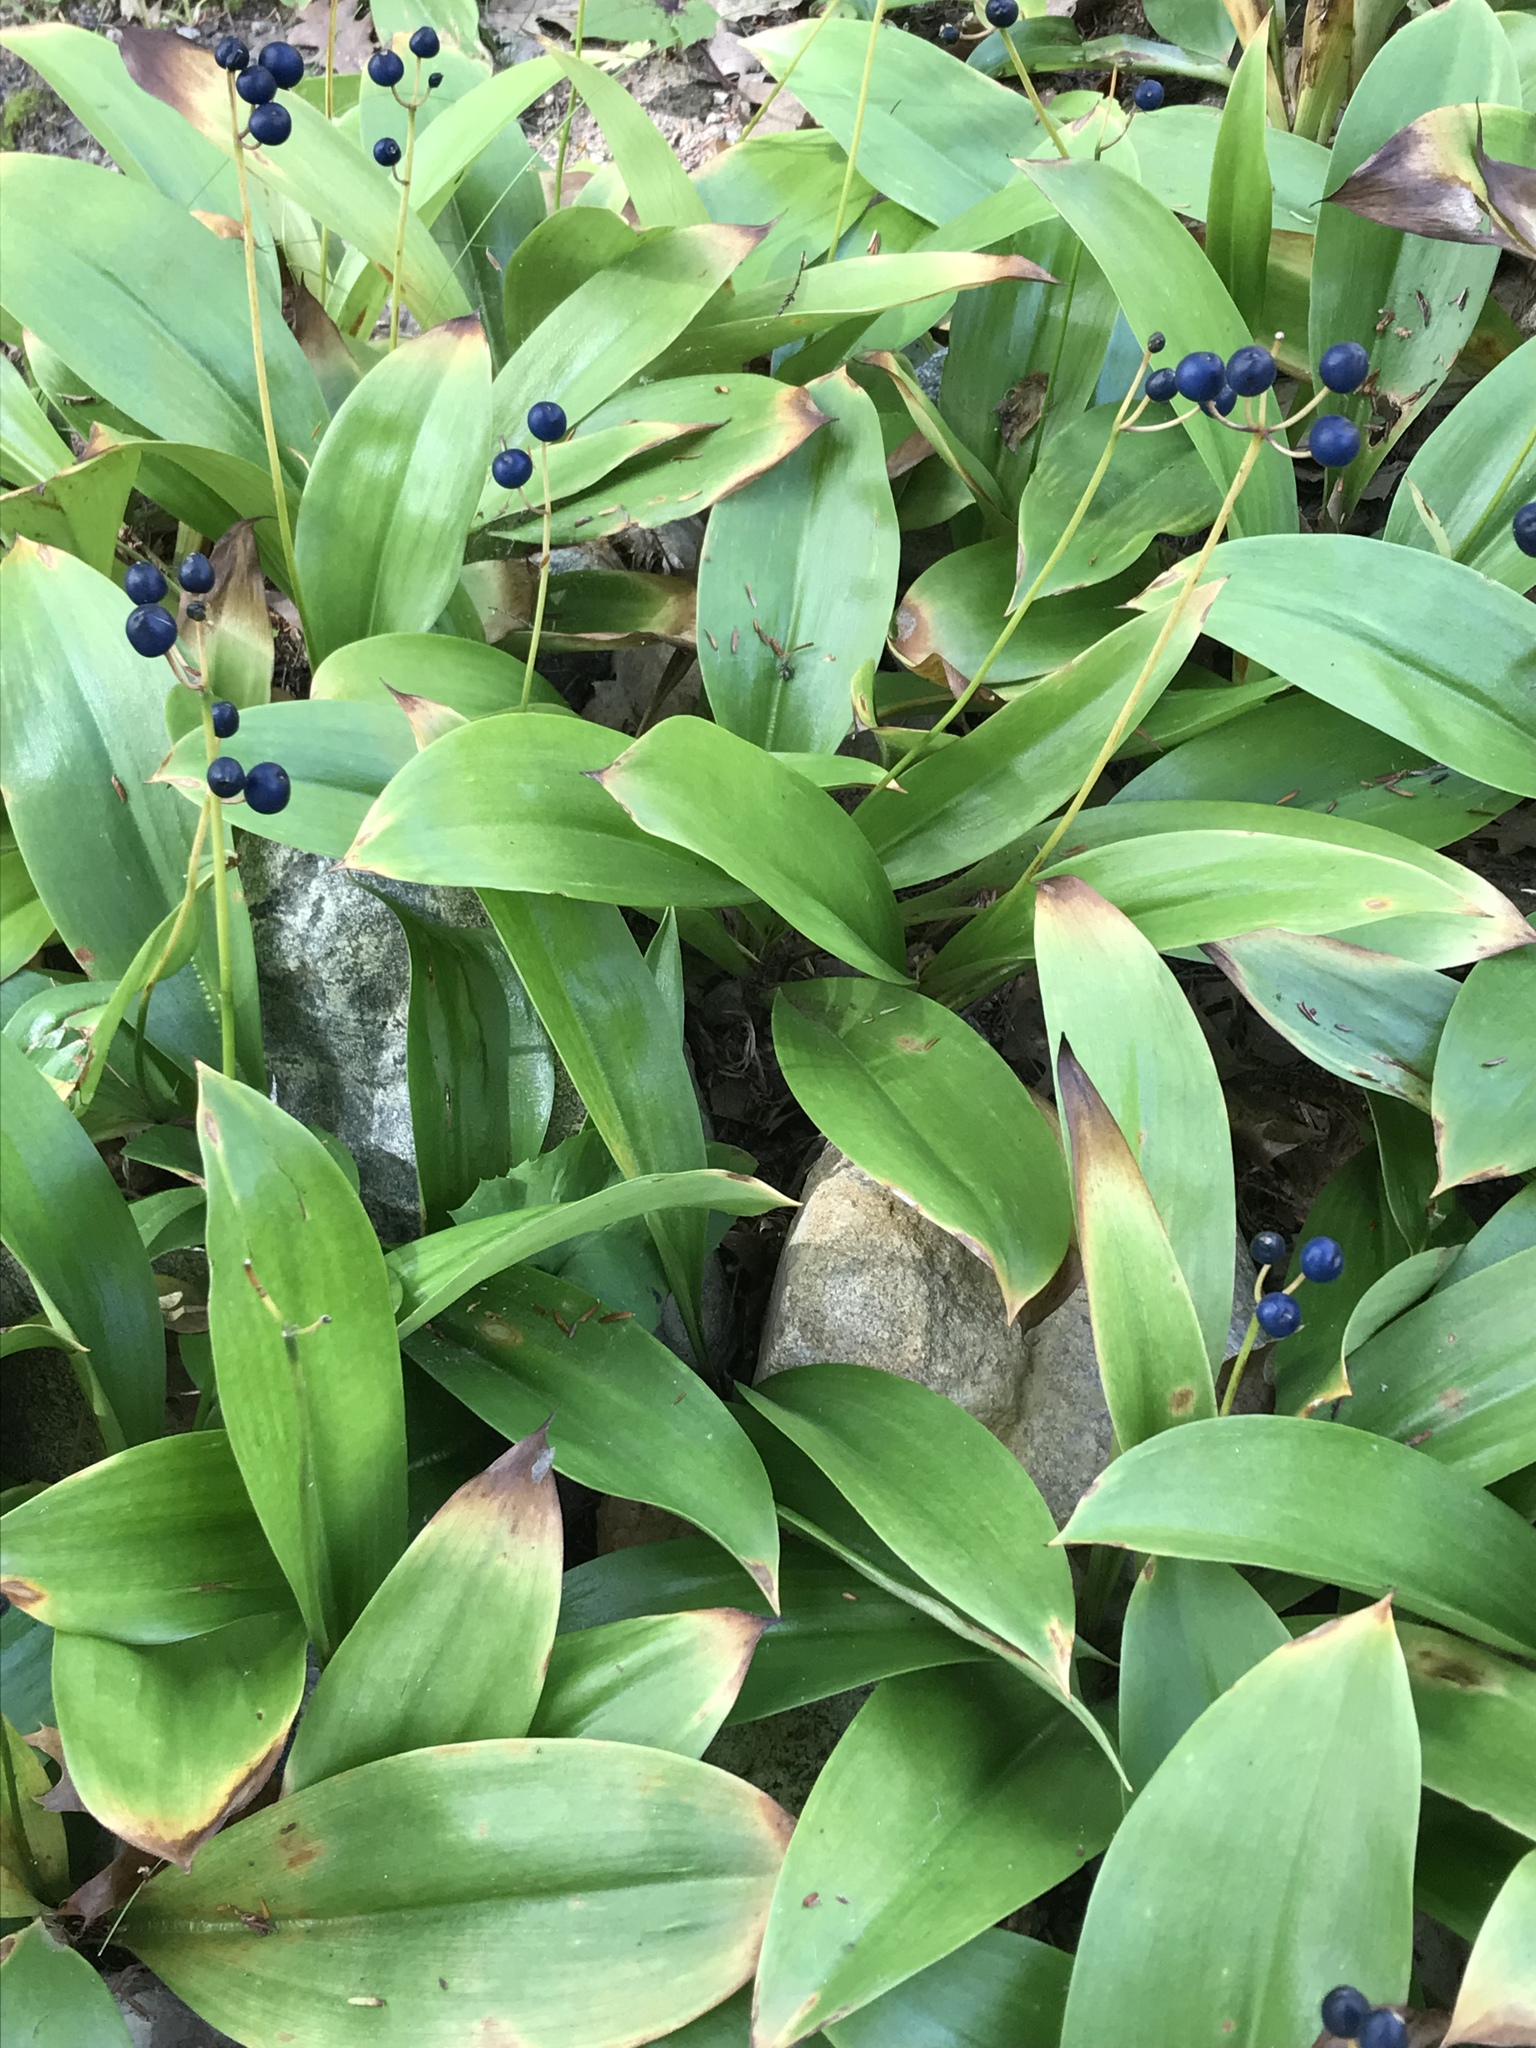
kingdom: Plantae
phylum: Tracheophyta
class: Liliopsida
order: Liliales
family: Liliaceae
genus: Clintonia
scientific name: Clintonia borealis
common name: Yellow clintonia
